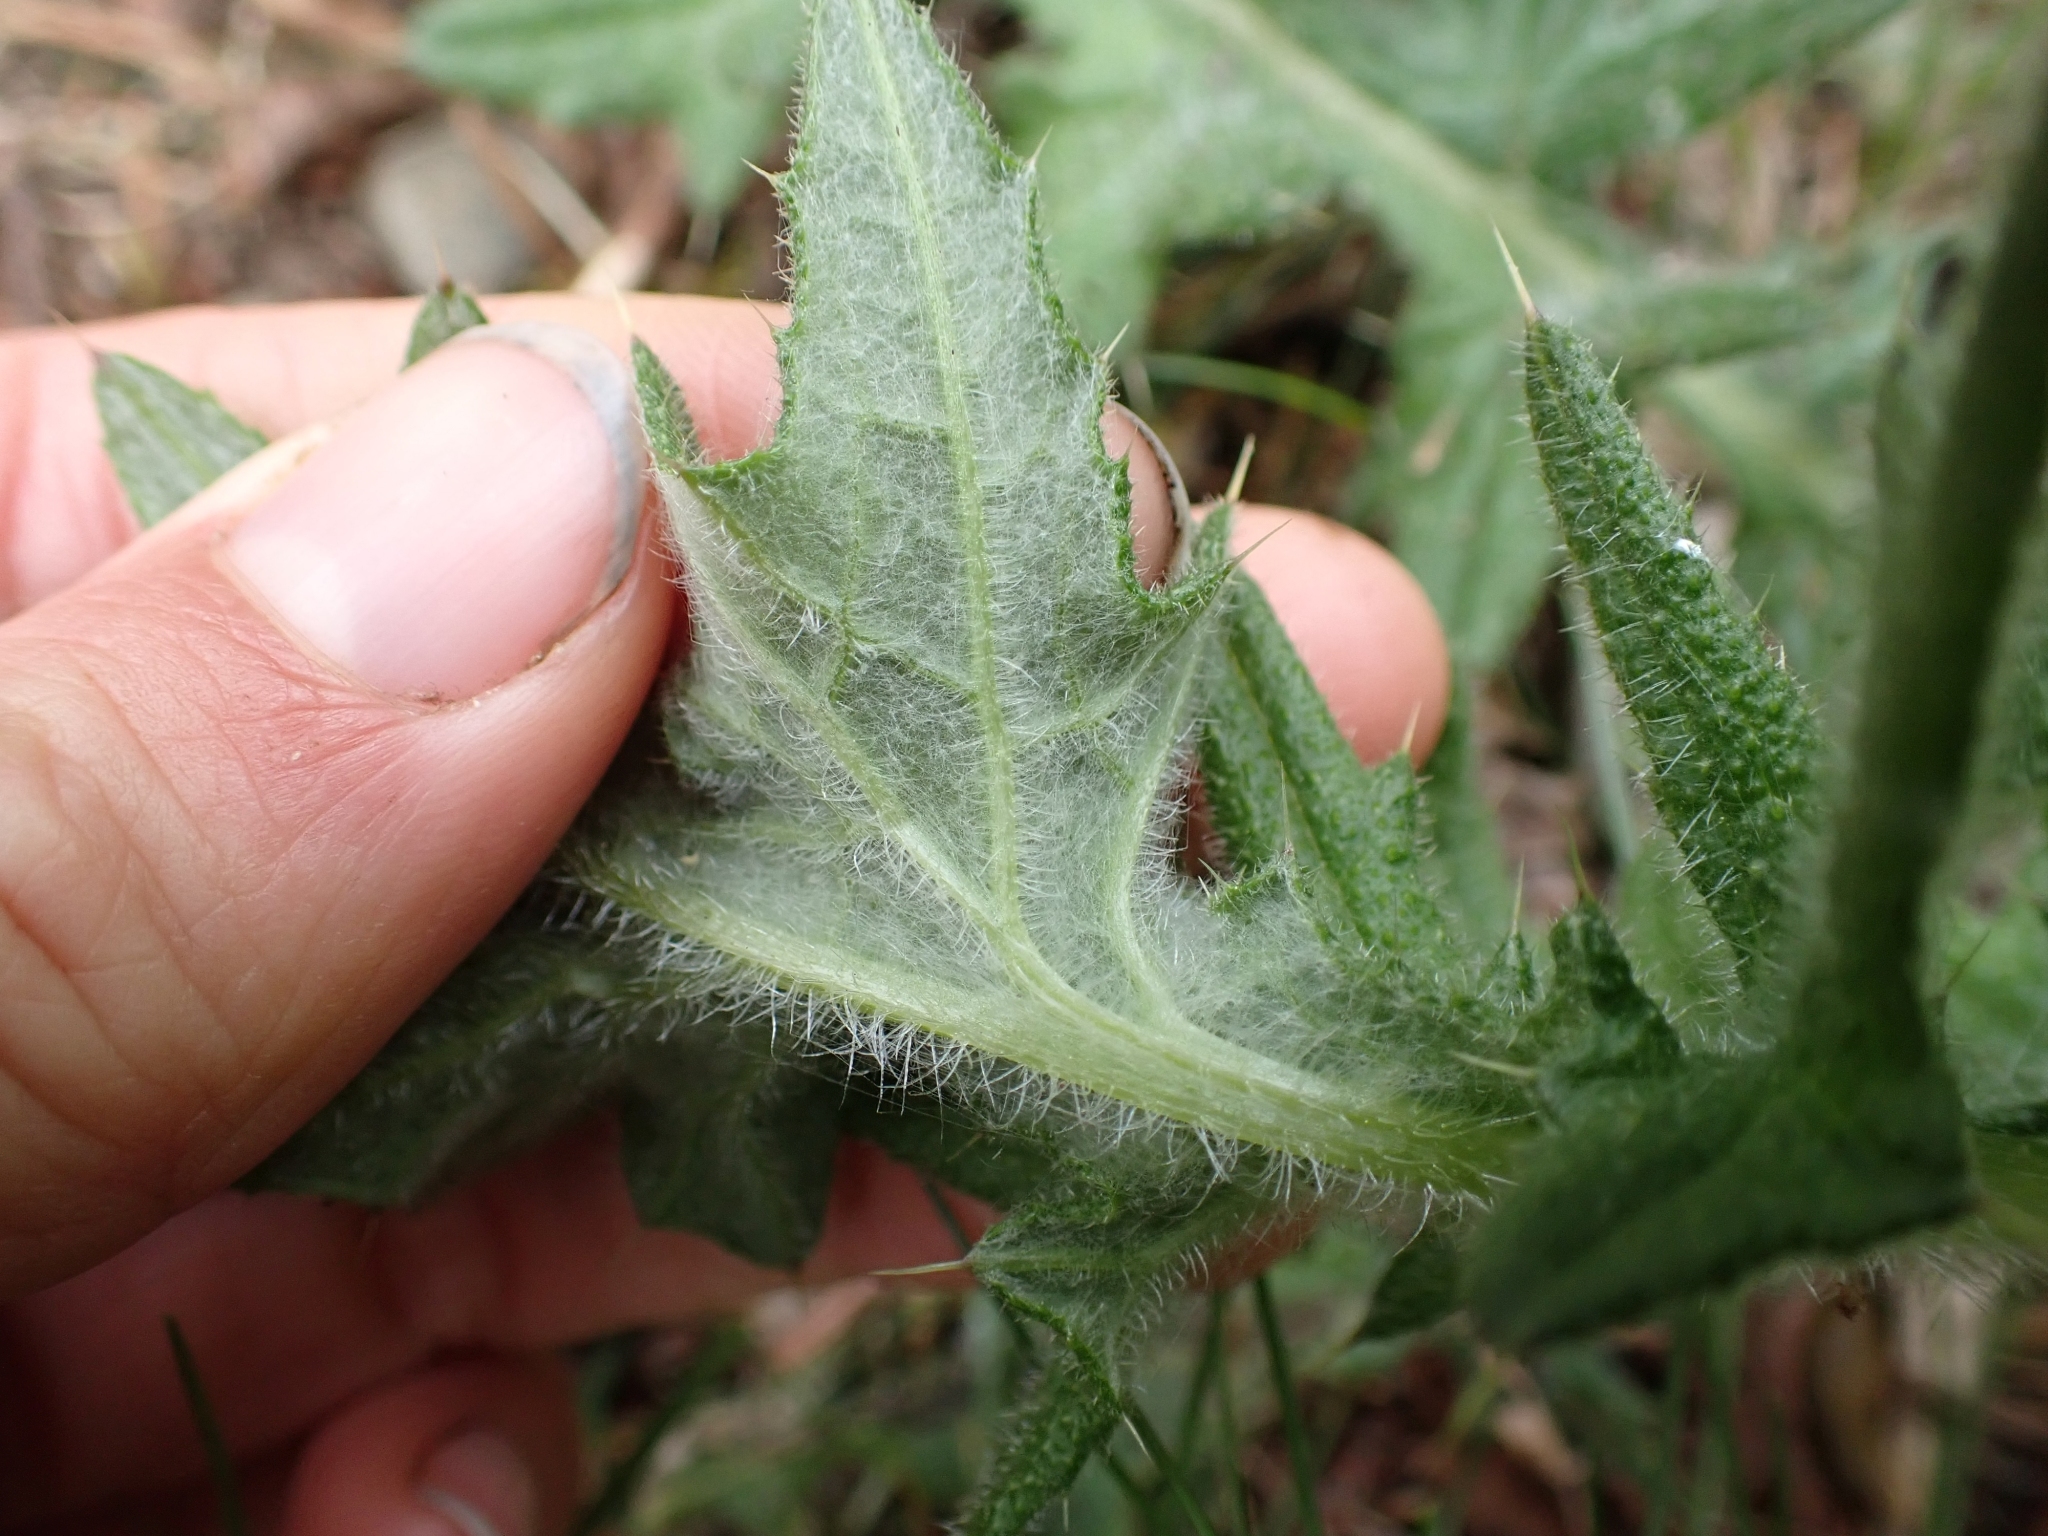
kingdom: Plantae
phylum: Tracheophyta
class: Magnoliopsida
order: Asterales
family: Asteraceae
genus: Cirsium
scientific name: Cirsium vulgare
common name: Bull thistle
